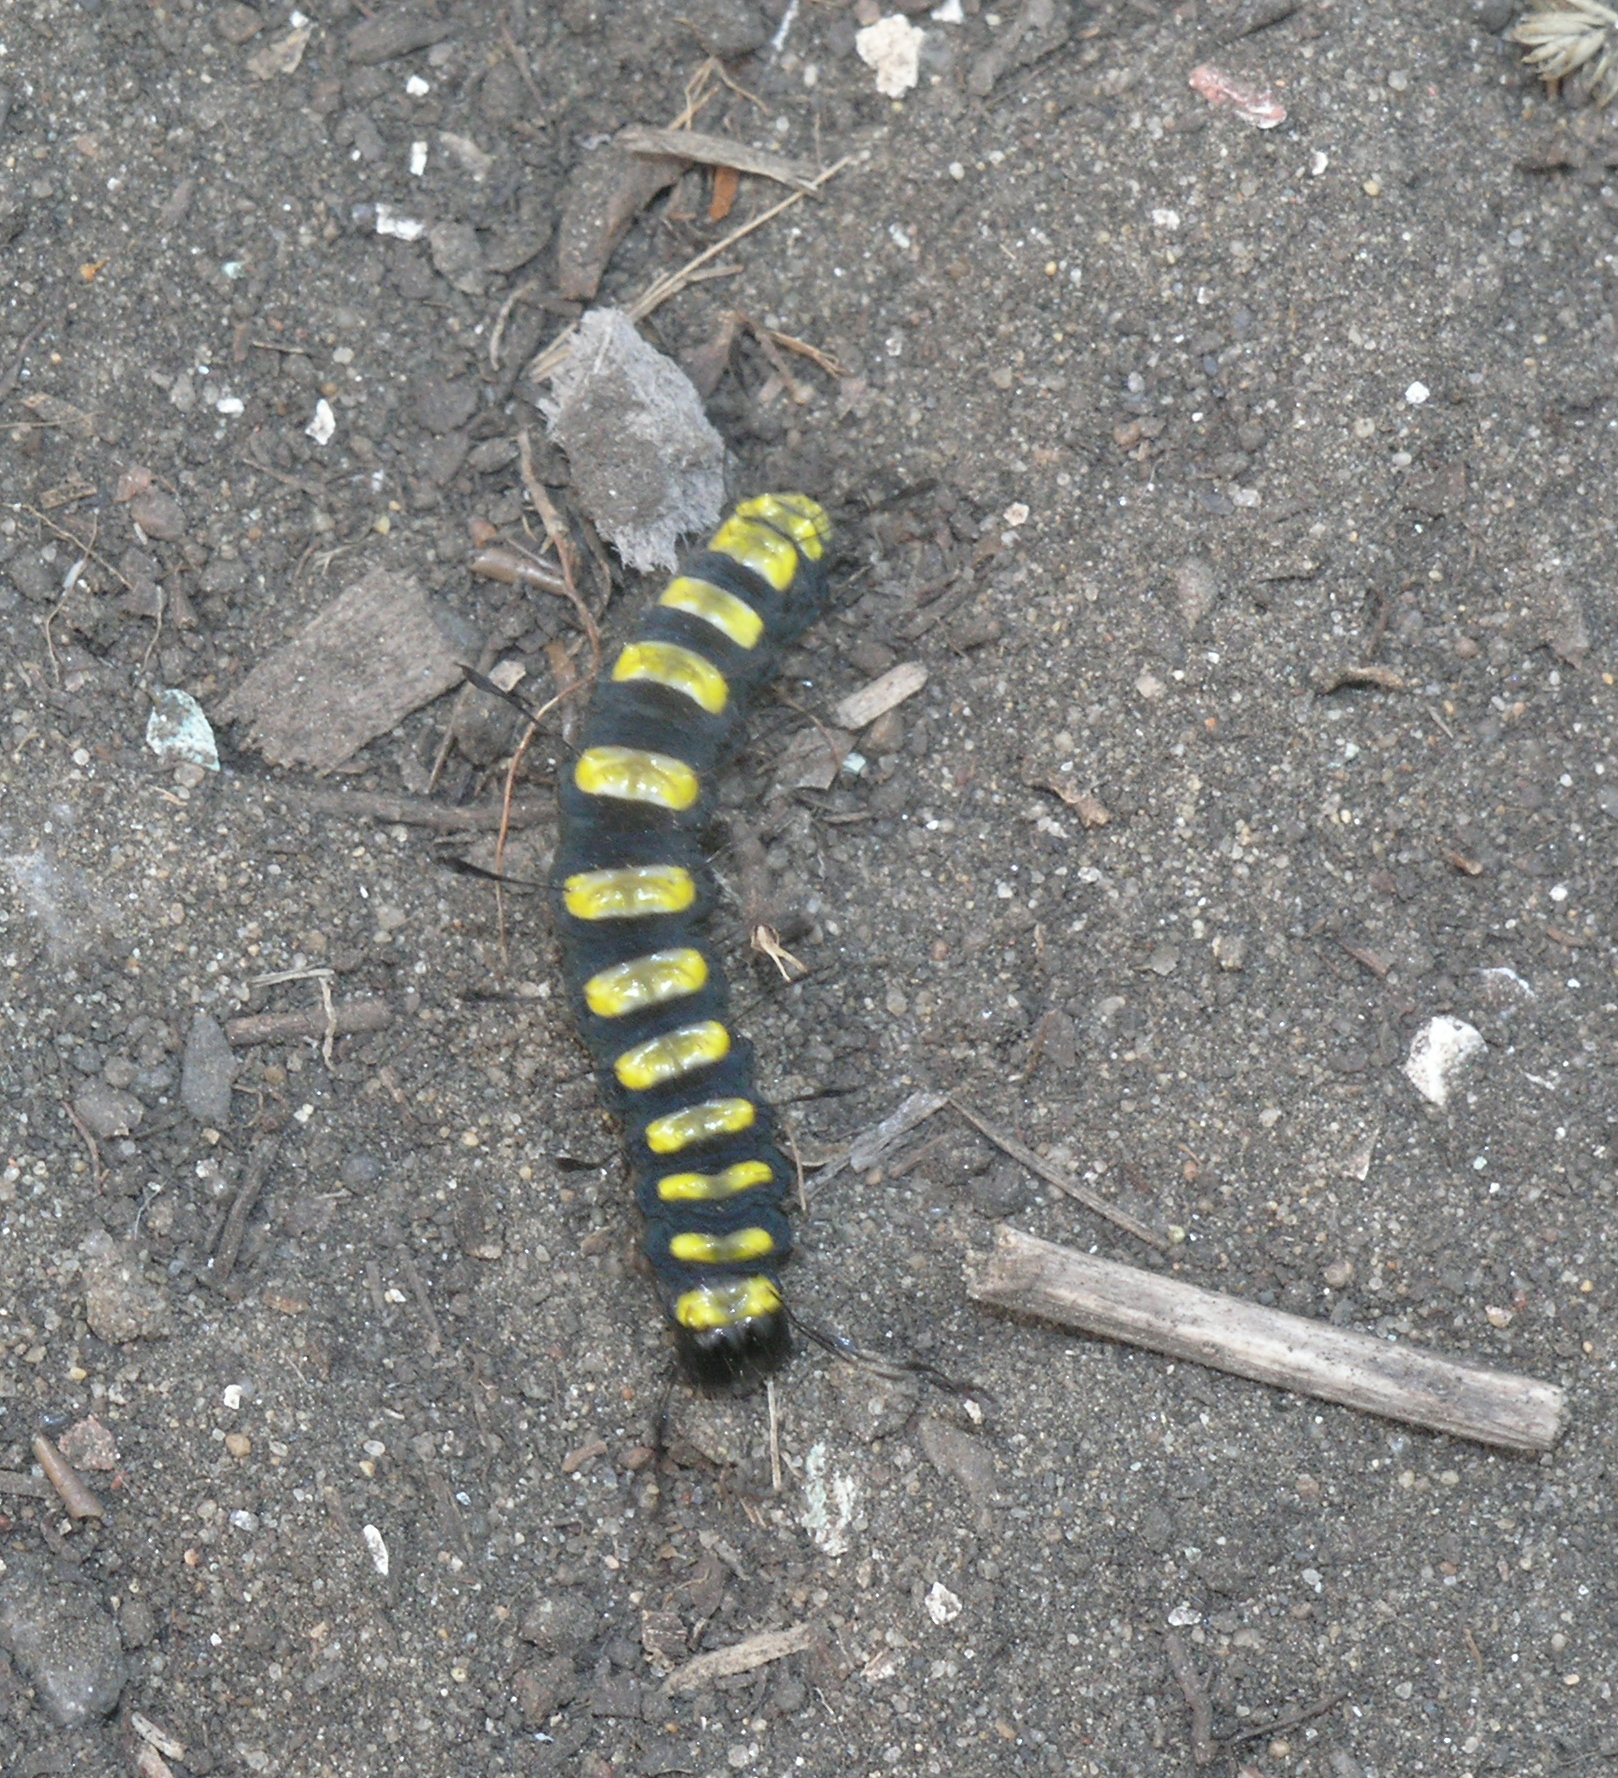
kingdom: Animalia
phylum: Arthropoda
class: Insecta
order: Lepidoptera
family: Noctuidae
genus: Acronicta
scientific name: Acronicta alni
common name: Alder moth
